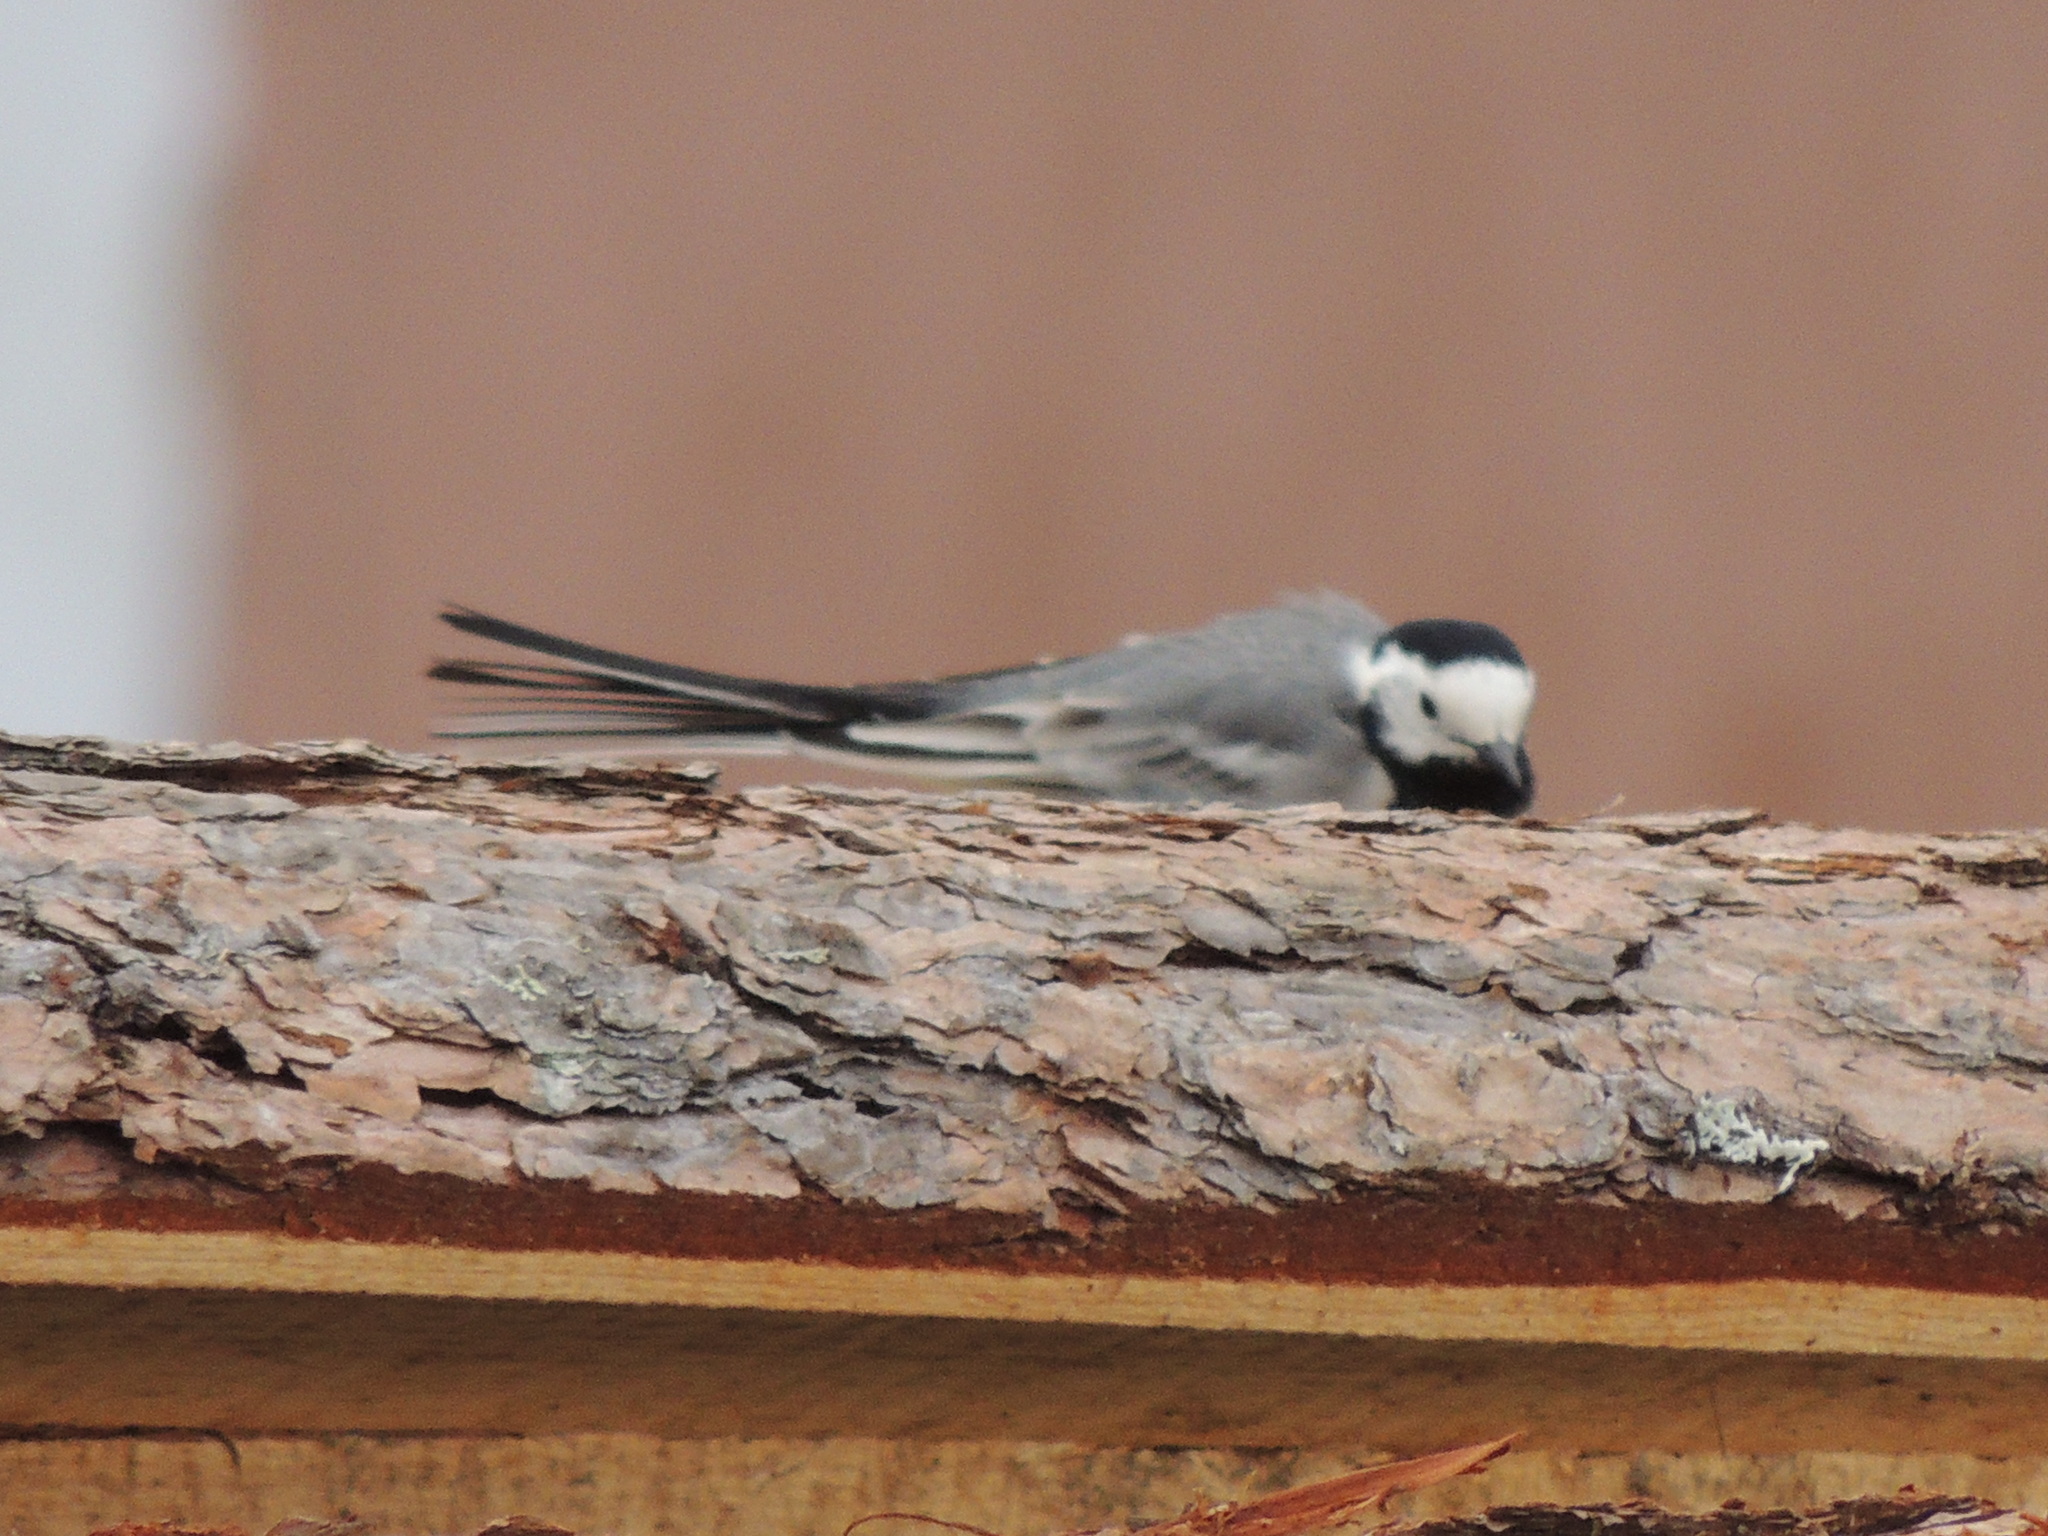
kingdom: Animalia
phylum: Chordata
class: Aves
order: Passeriformes
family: Motacillidae
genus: Motacilla
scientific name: Motacilla alba
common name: White wagtail
